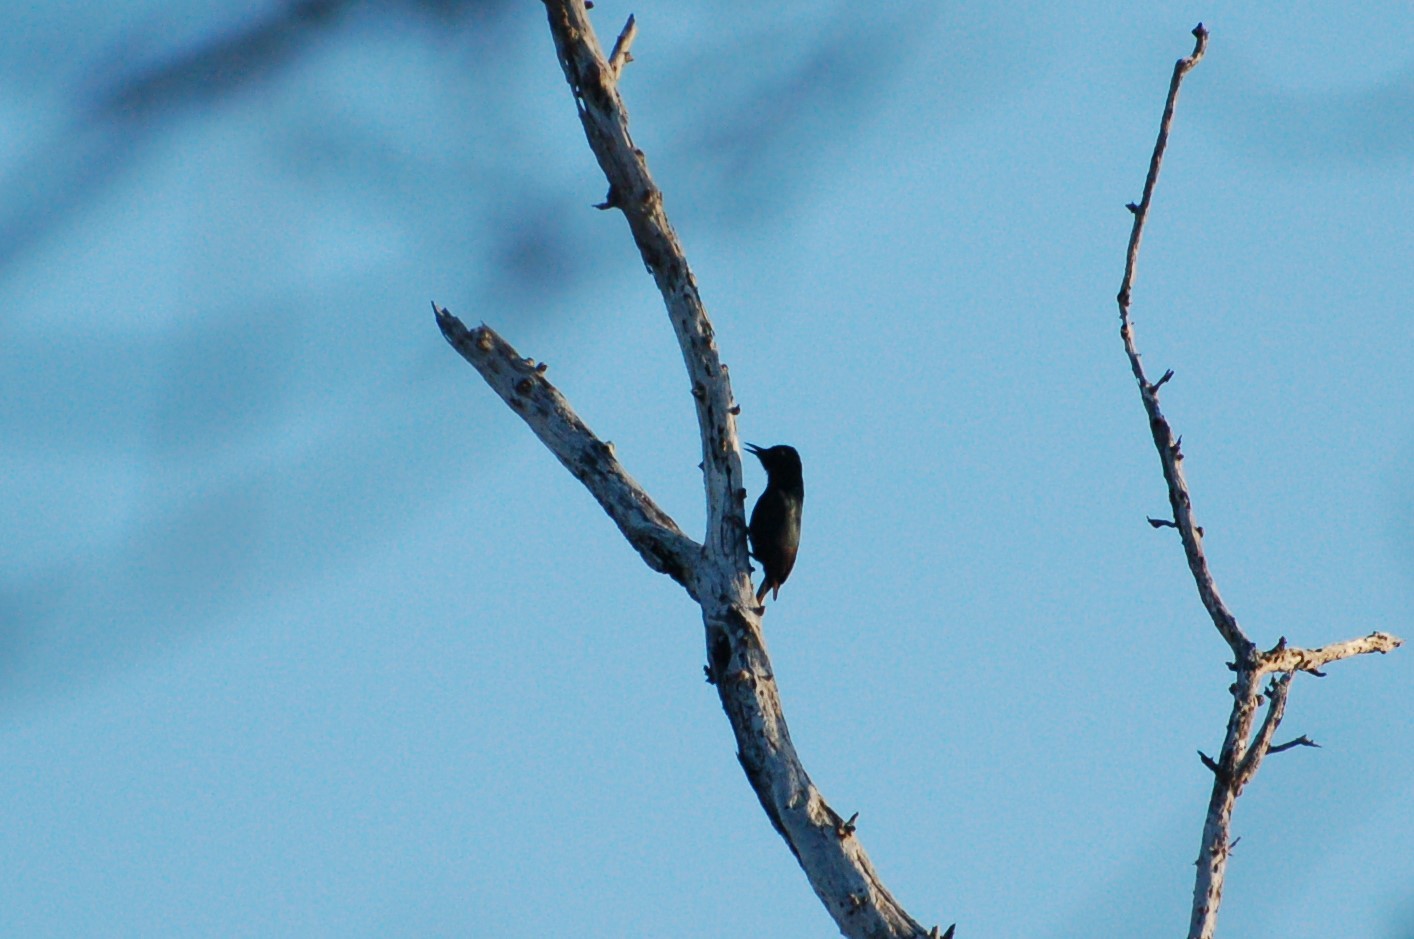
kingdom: Animalia
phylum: Chordata
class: Aves
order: Piciformes
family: Picidae
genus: Melanerpes
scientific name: Melanerpes herminieri
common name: Guadeloupe woodpecker
